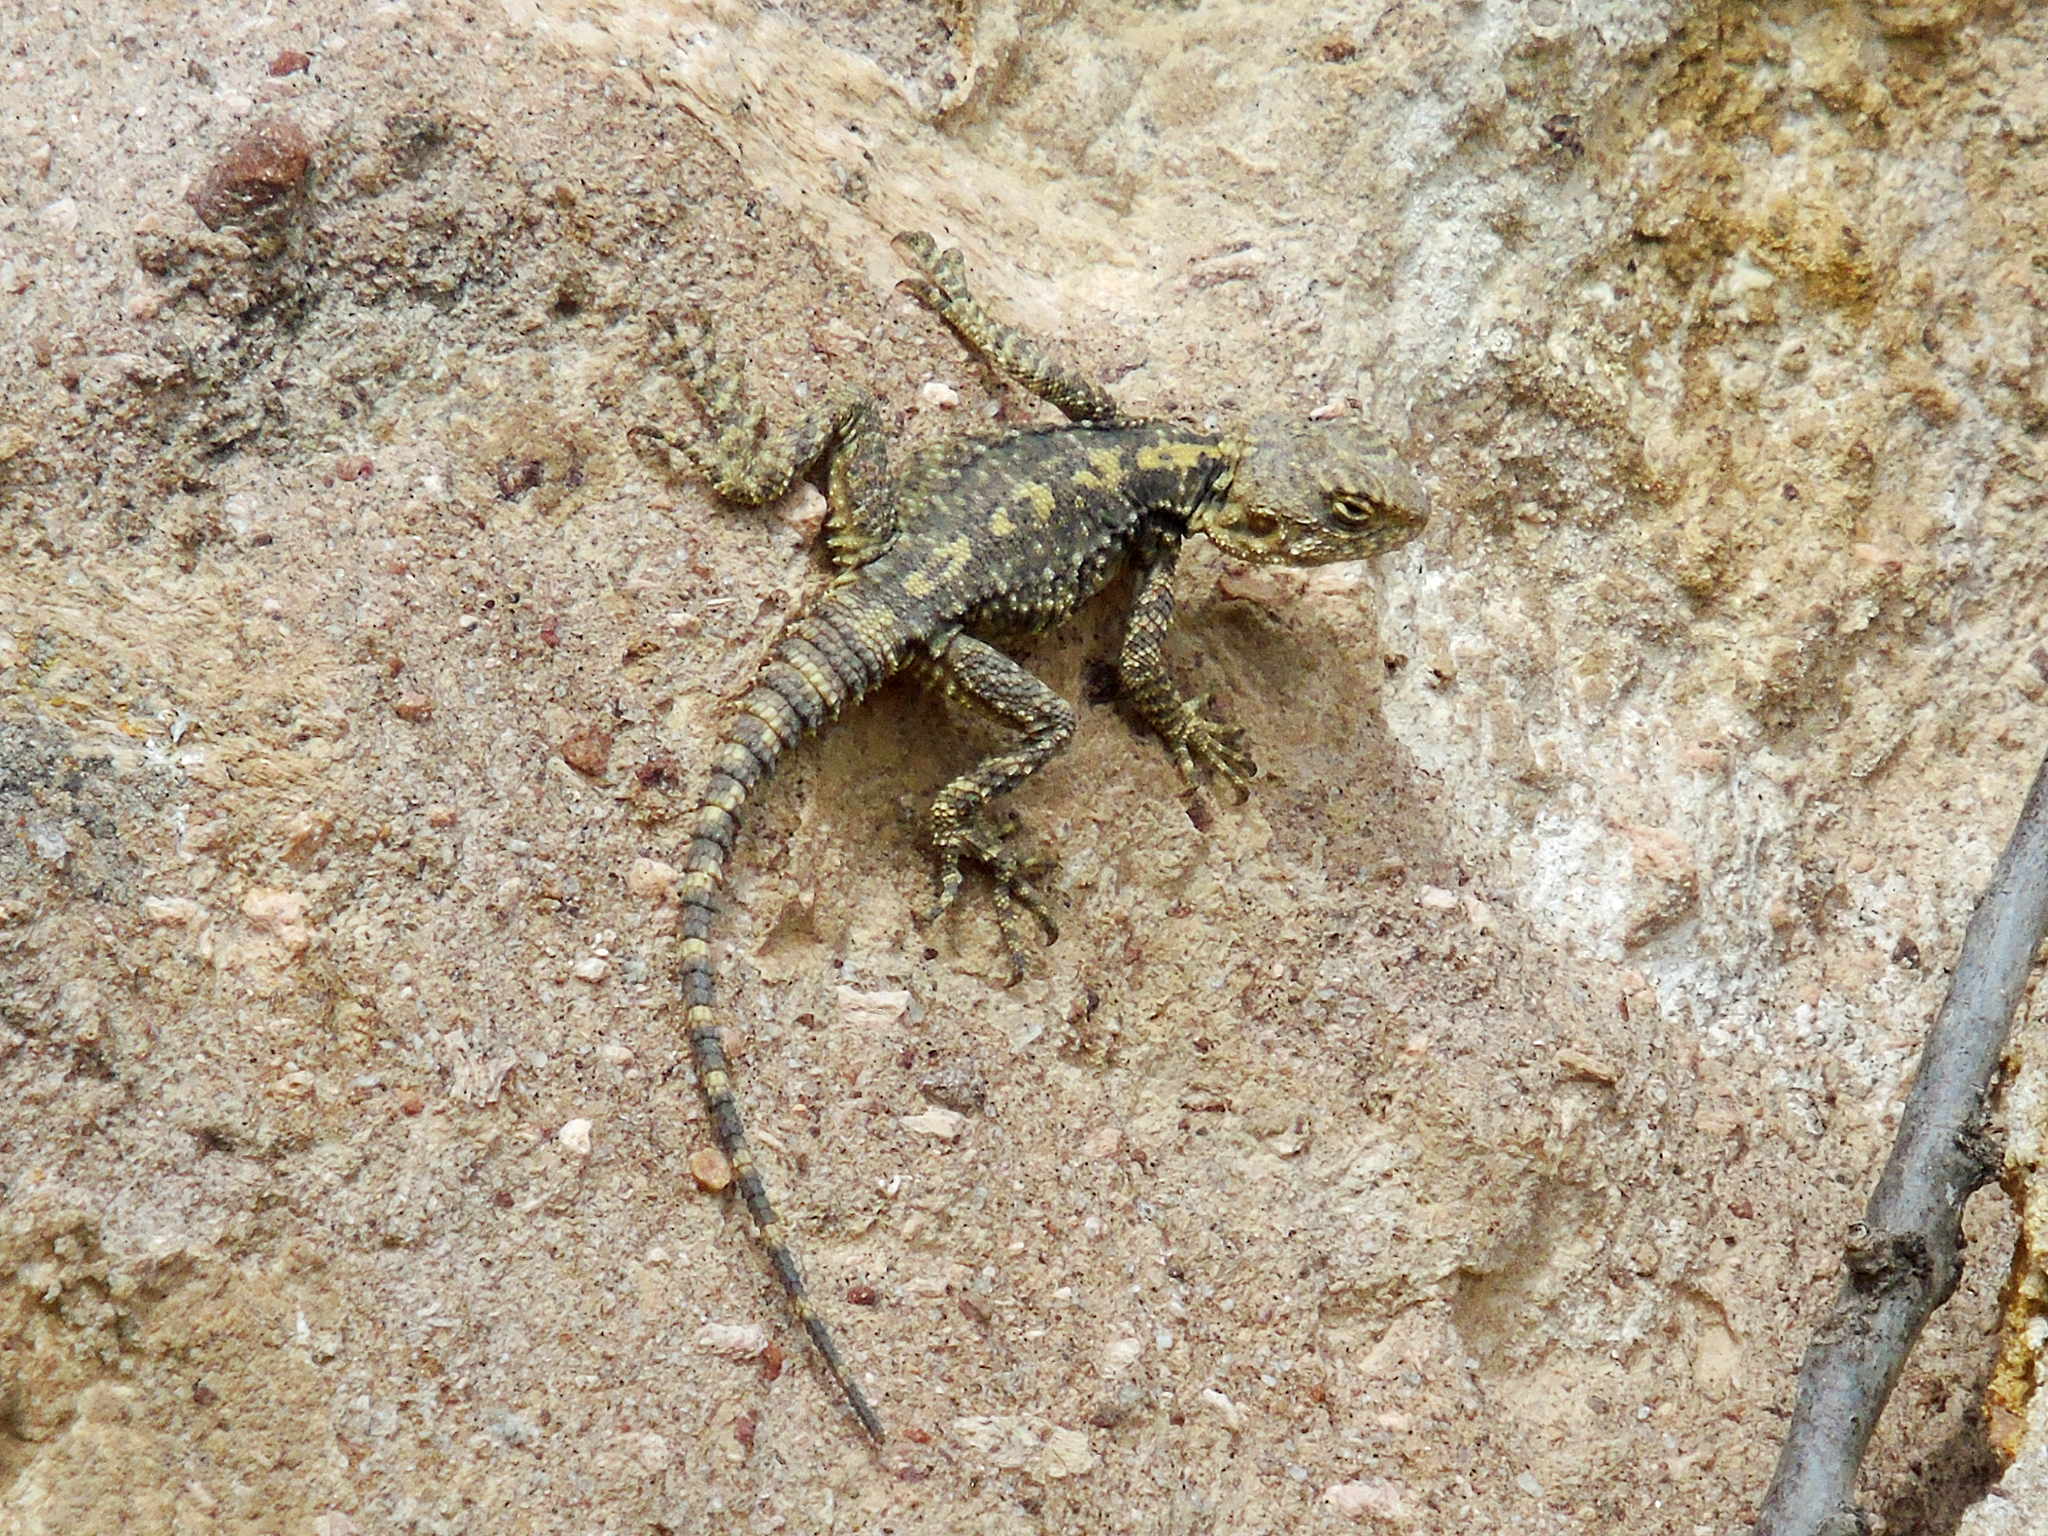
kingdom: Animalia
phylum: Chordata
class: Squamata
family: Agamidae
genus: Stellagama
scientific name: Stellagama stellio
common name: Starred agama
